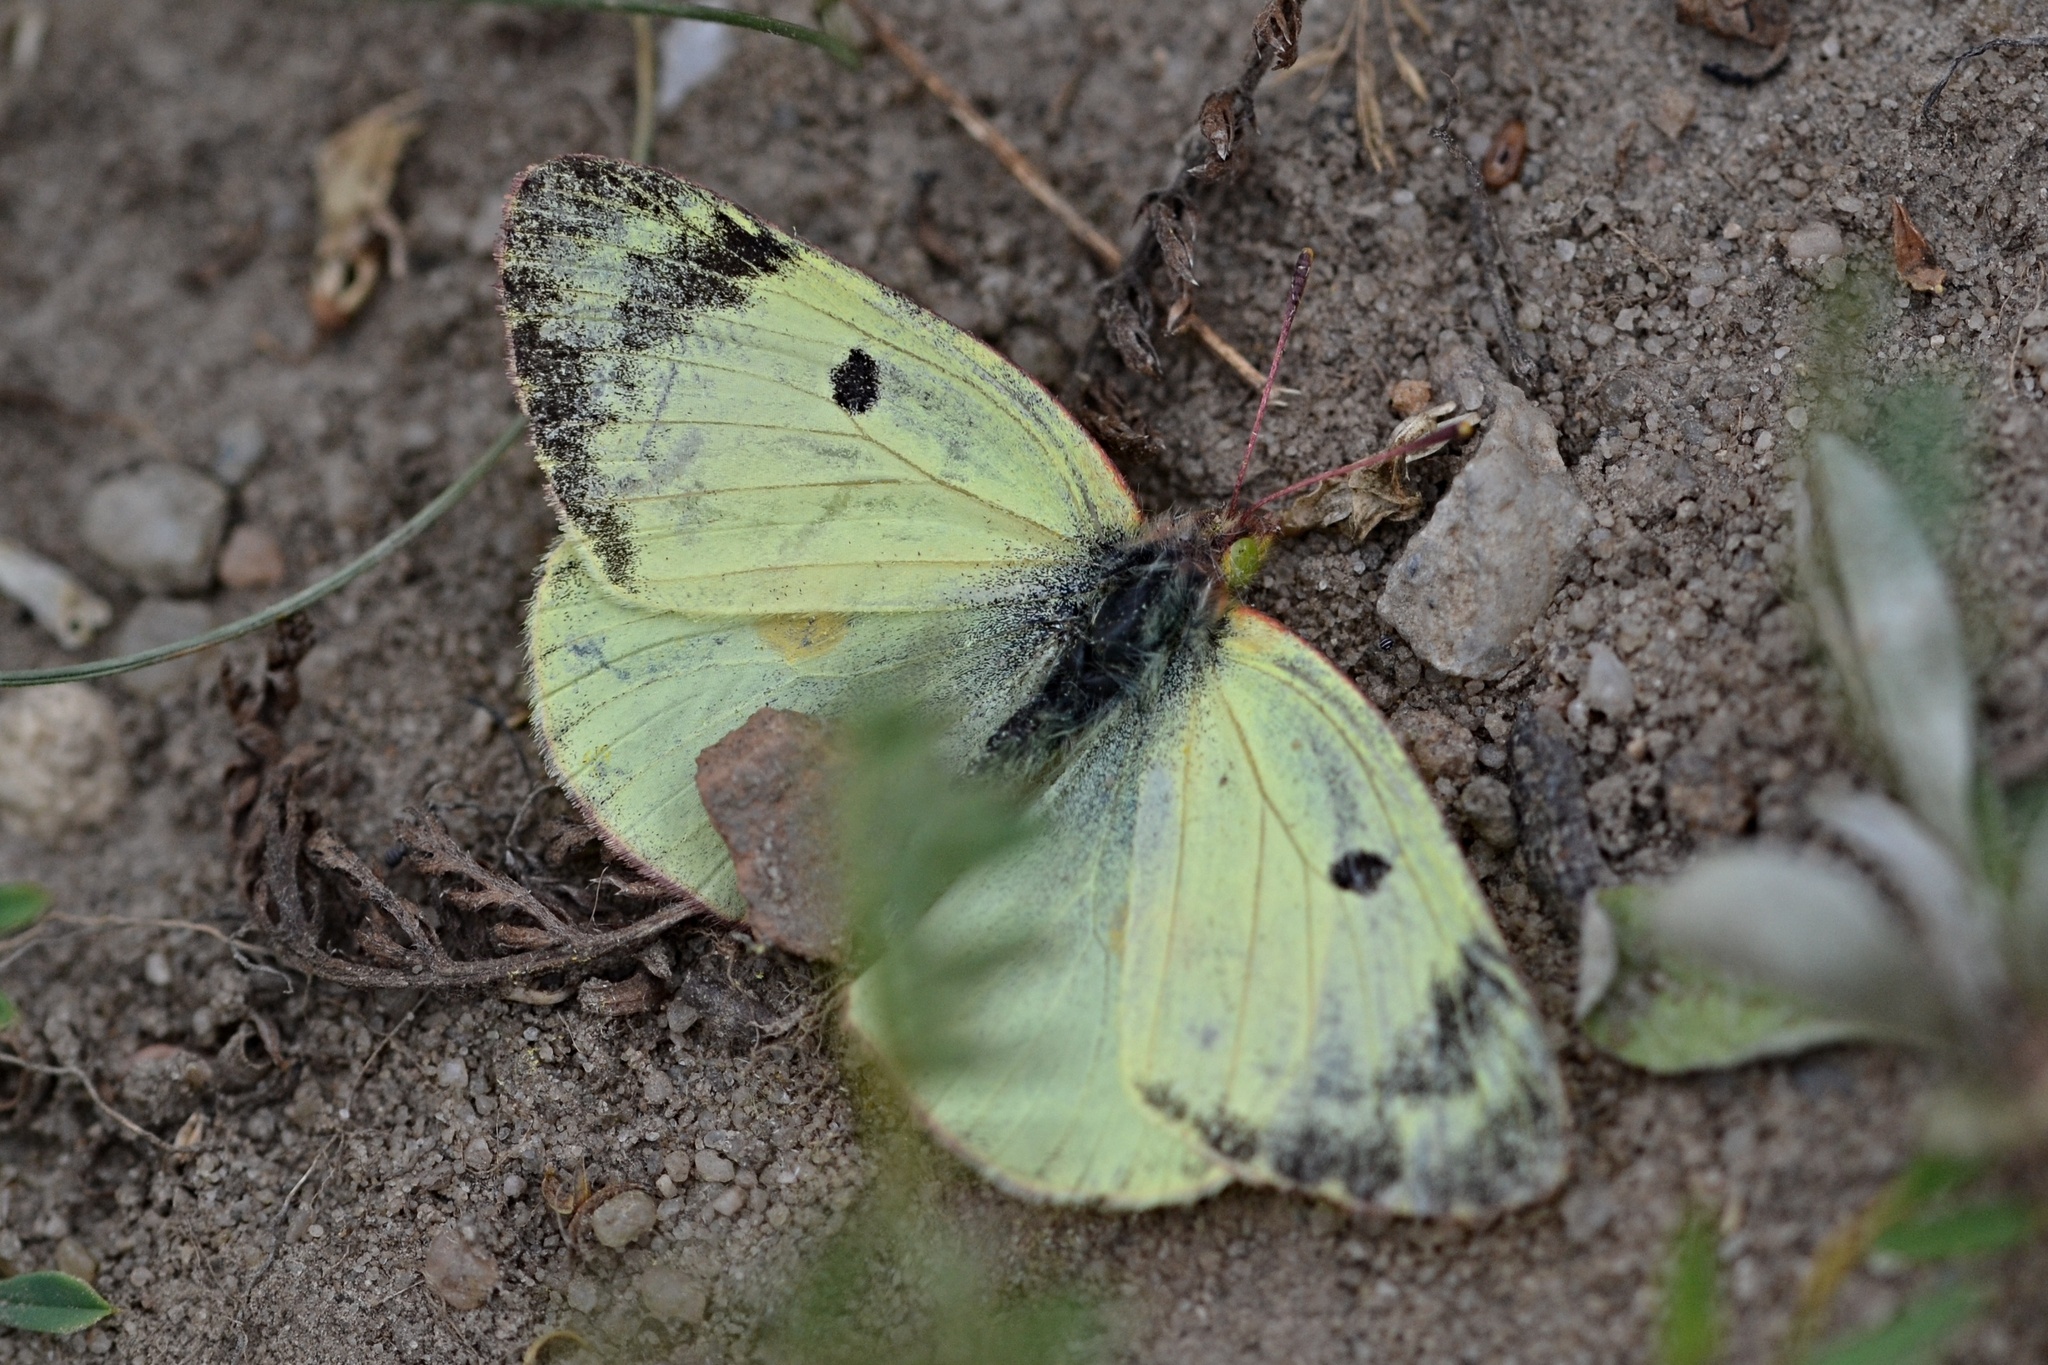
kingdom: Animalia
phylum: Arthropoda
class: Insecta
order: Lepidoptera
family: Pieridae
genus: Colias
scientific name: Colias alfacariensis
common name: Berger's clouded yellow
